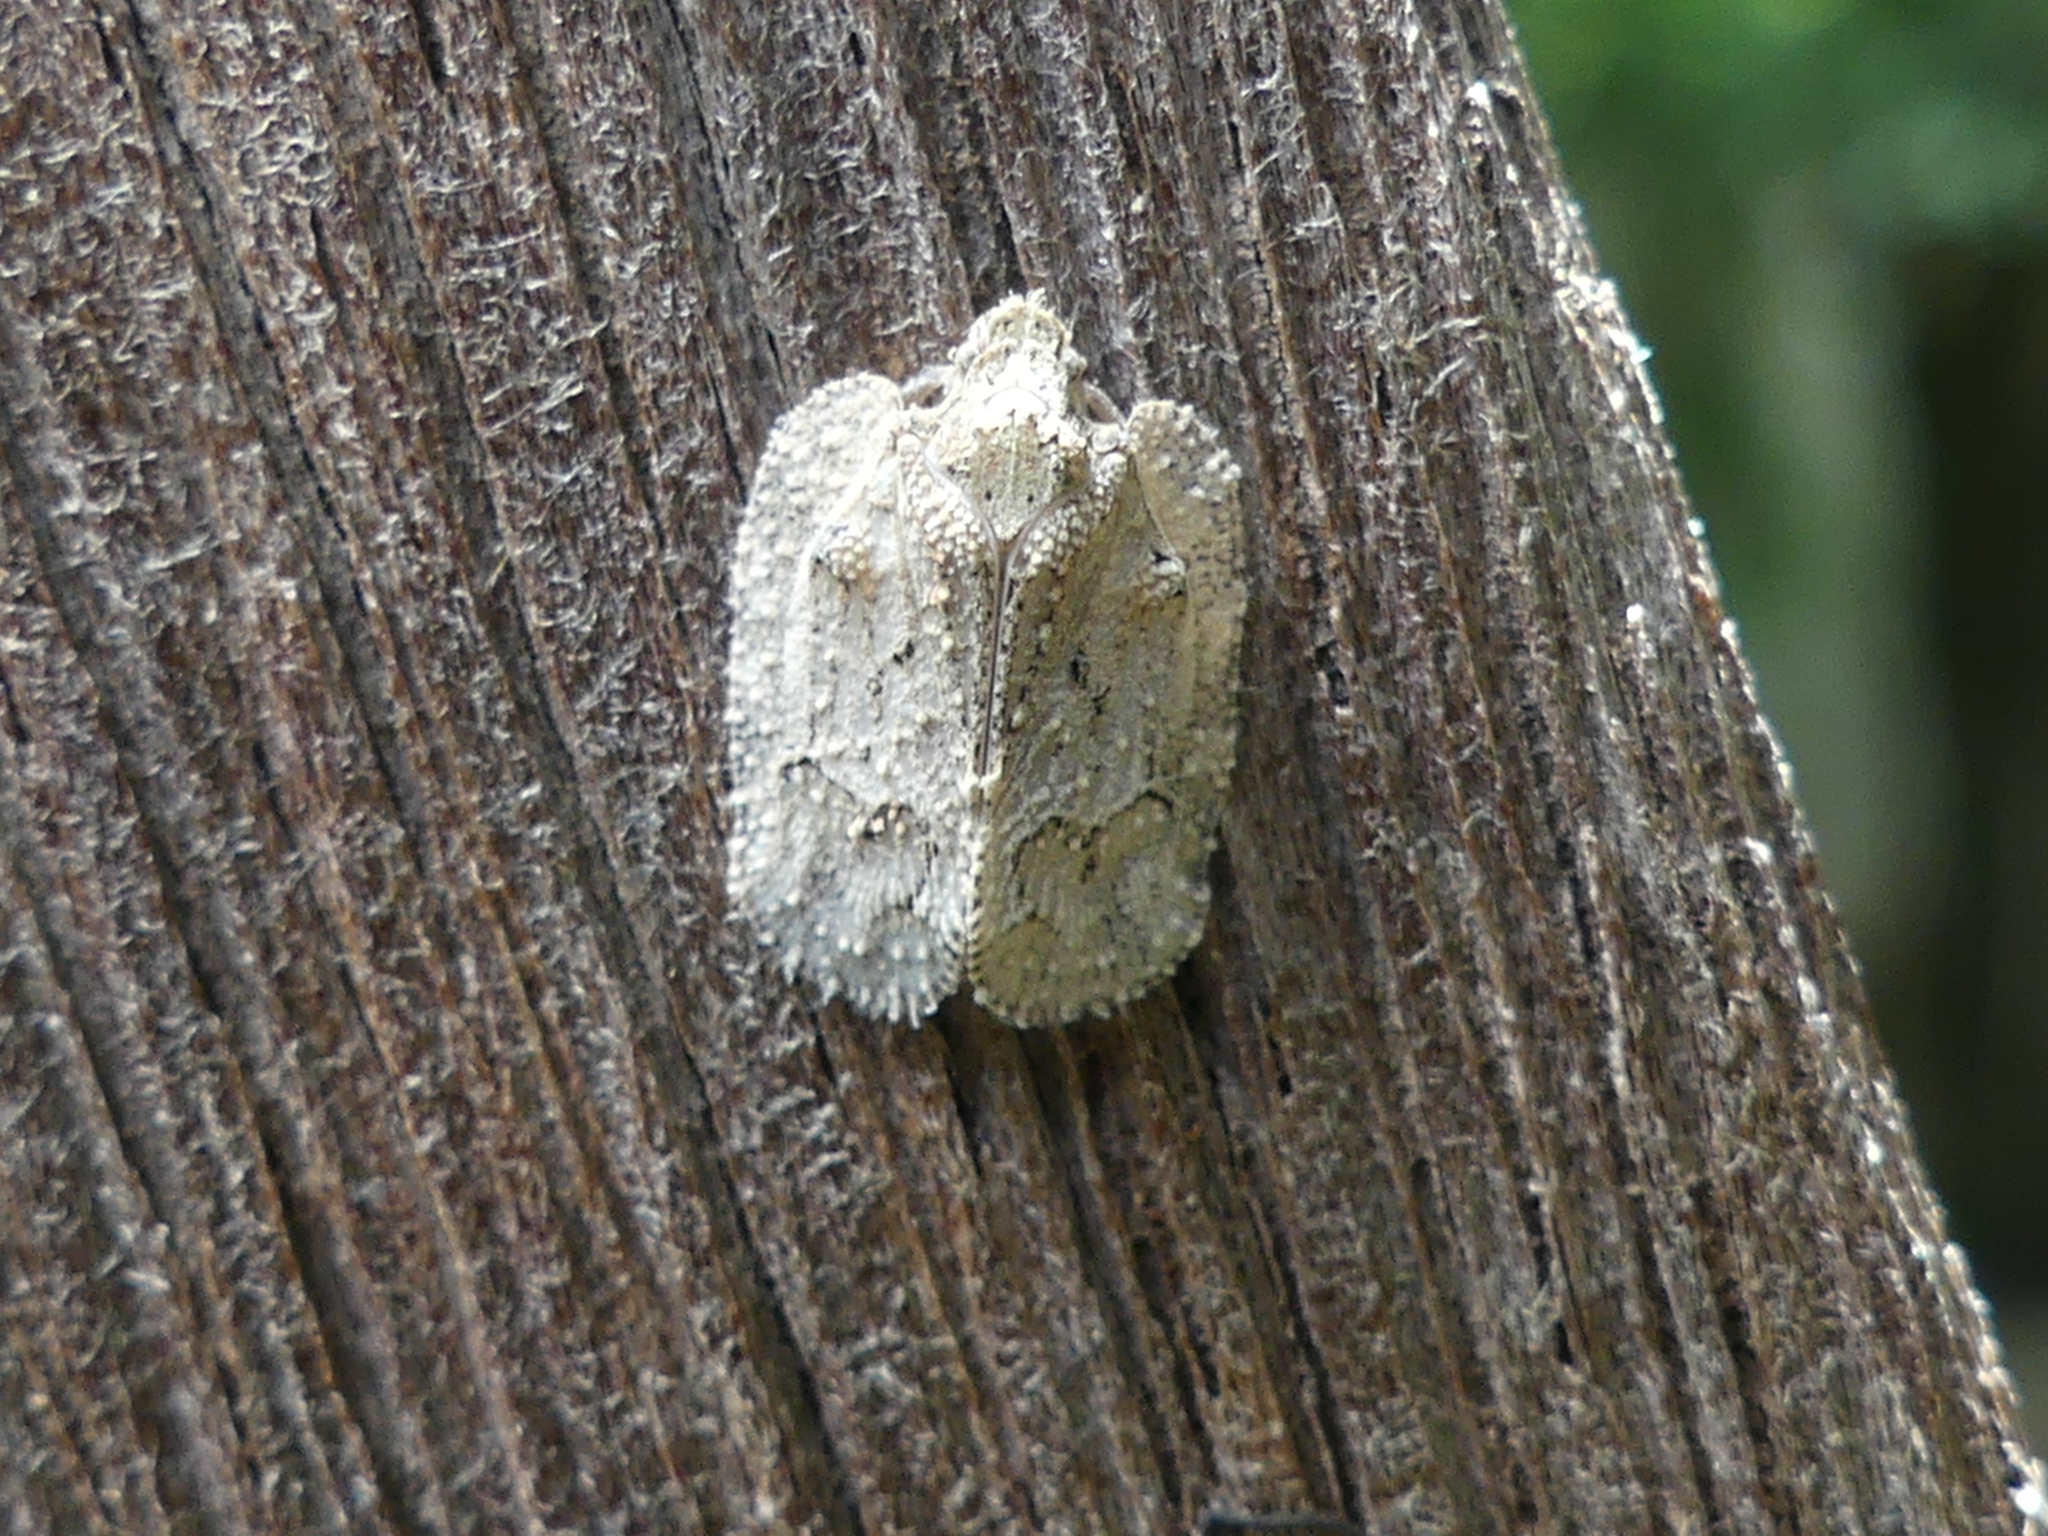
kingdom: Animalia
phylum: Arthropoda
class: Insecta
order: Hemiptera
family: Flatidae
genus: Flataloides
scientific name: Flataloides scabrosa
